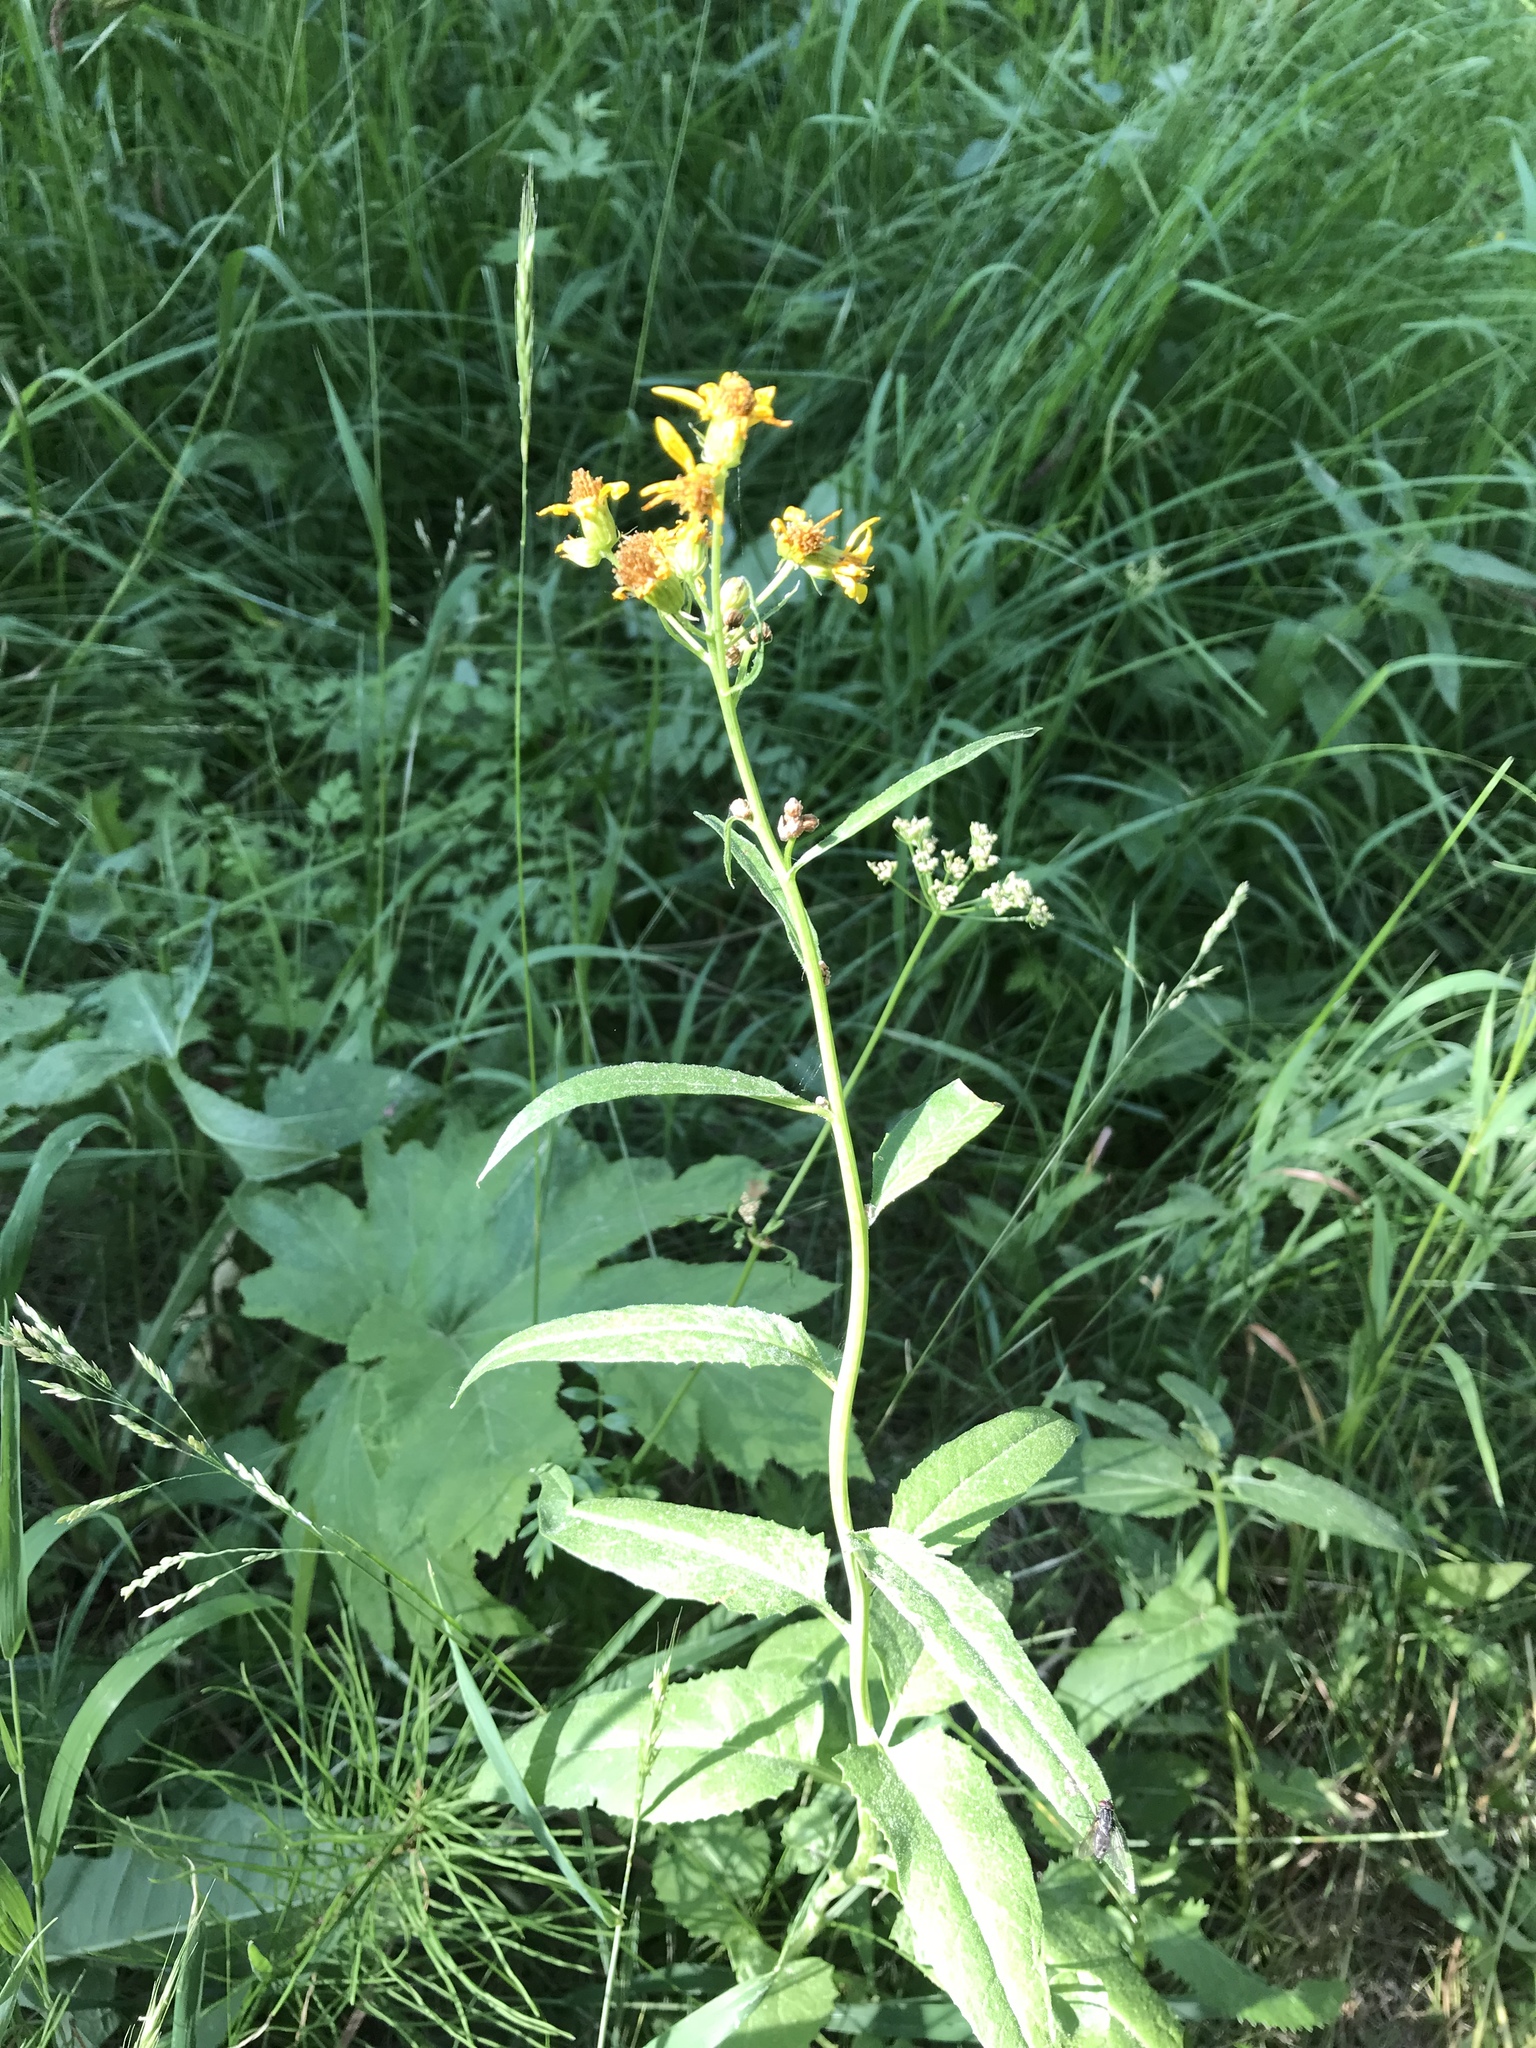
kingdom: Plantae
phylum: Tracheophyta
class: Magnoliopsida
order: Asterales
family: Asteraceae
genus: Senecio
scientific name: Senecio triangularis
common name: Arrowleaf butterweed
